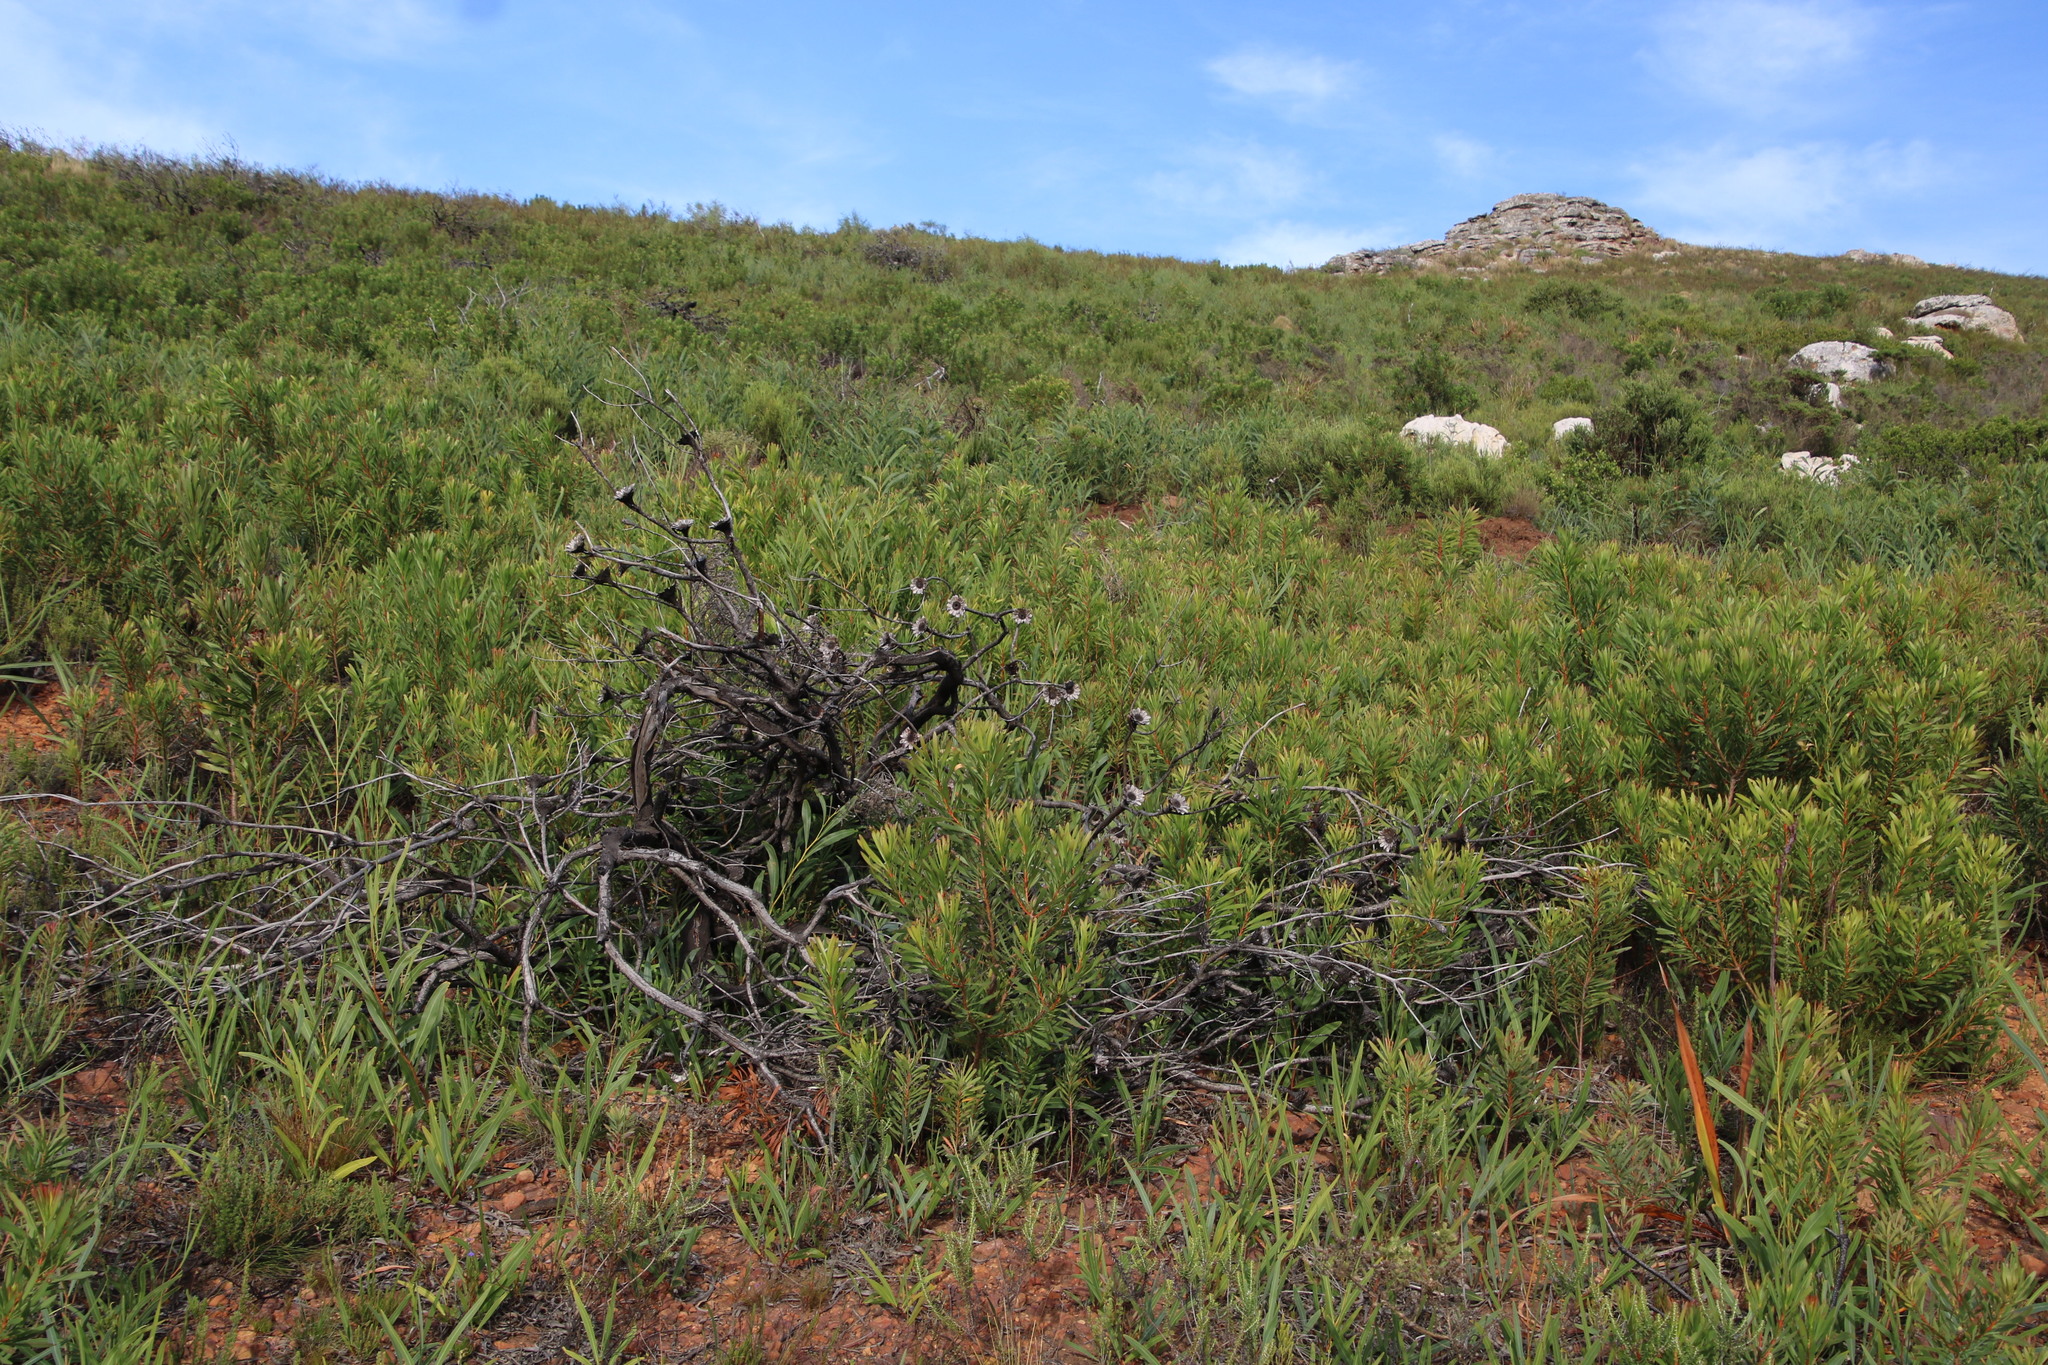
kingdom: Plantae
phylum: Tracheophyta
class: Magnoliopsida
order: Proteales
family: Proteaceae
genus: Protea
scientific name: Protea repens
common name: Sugarbush
